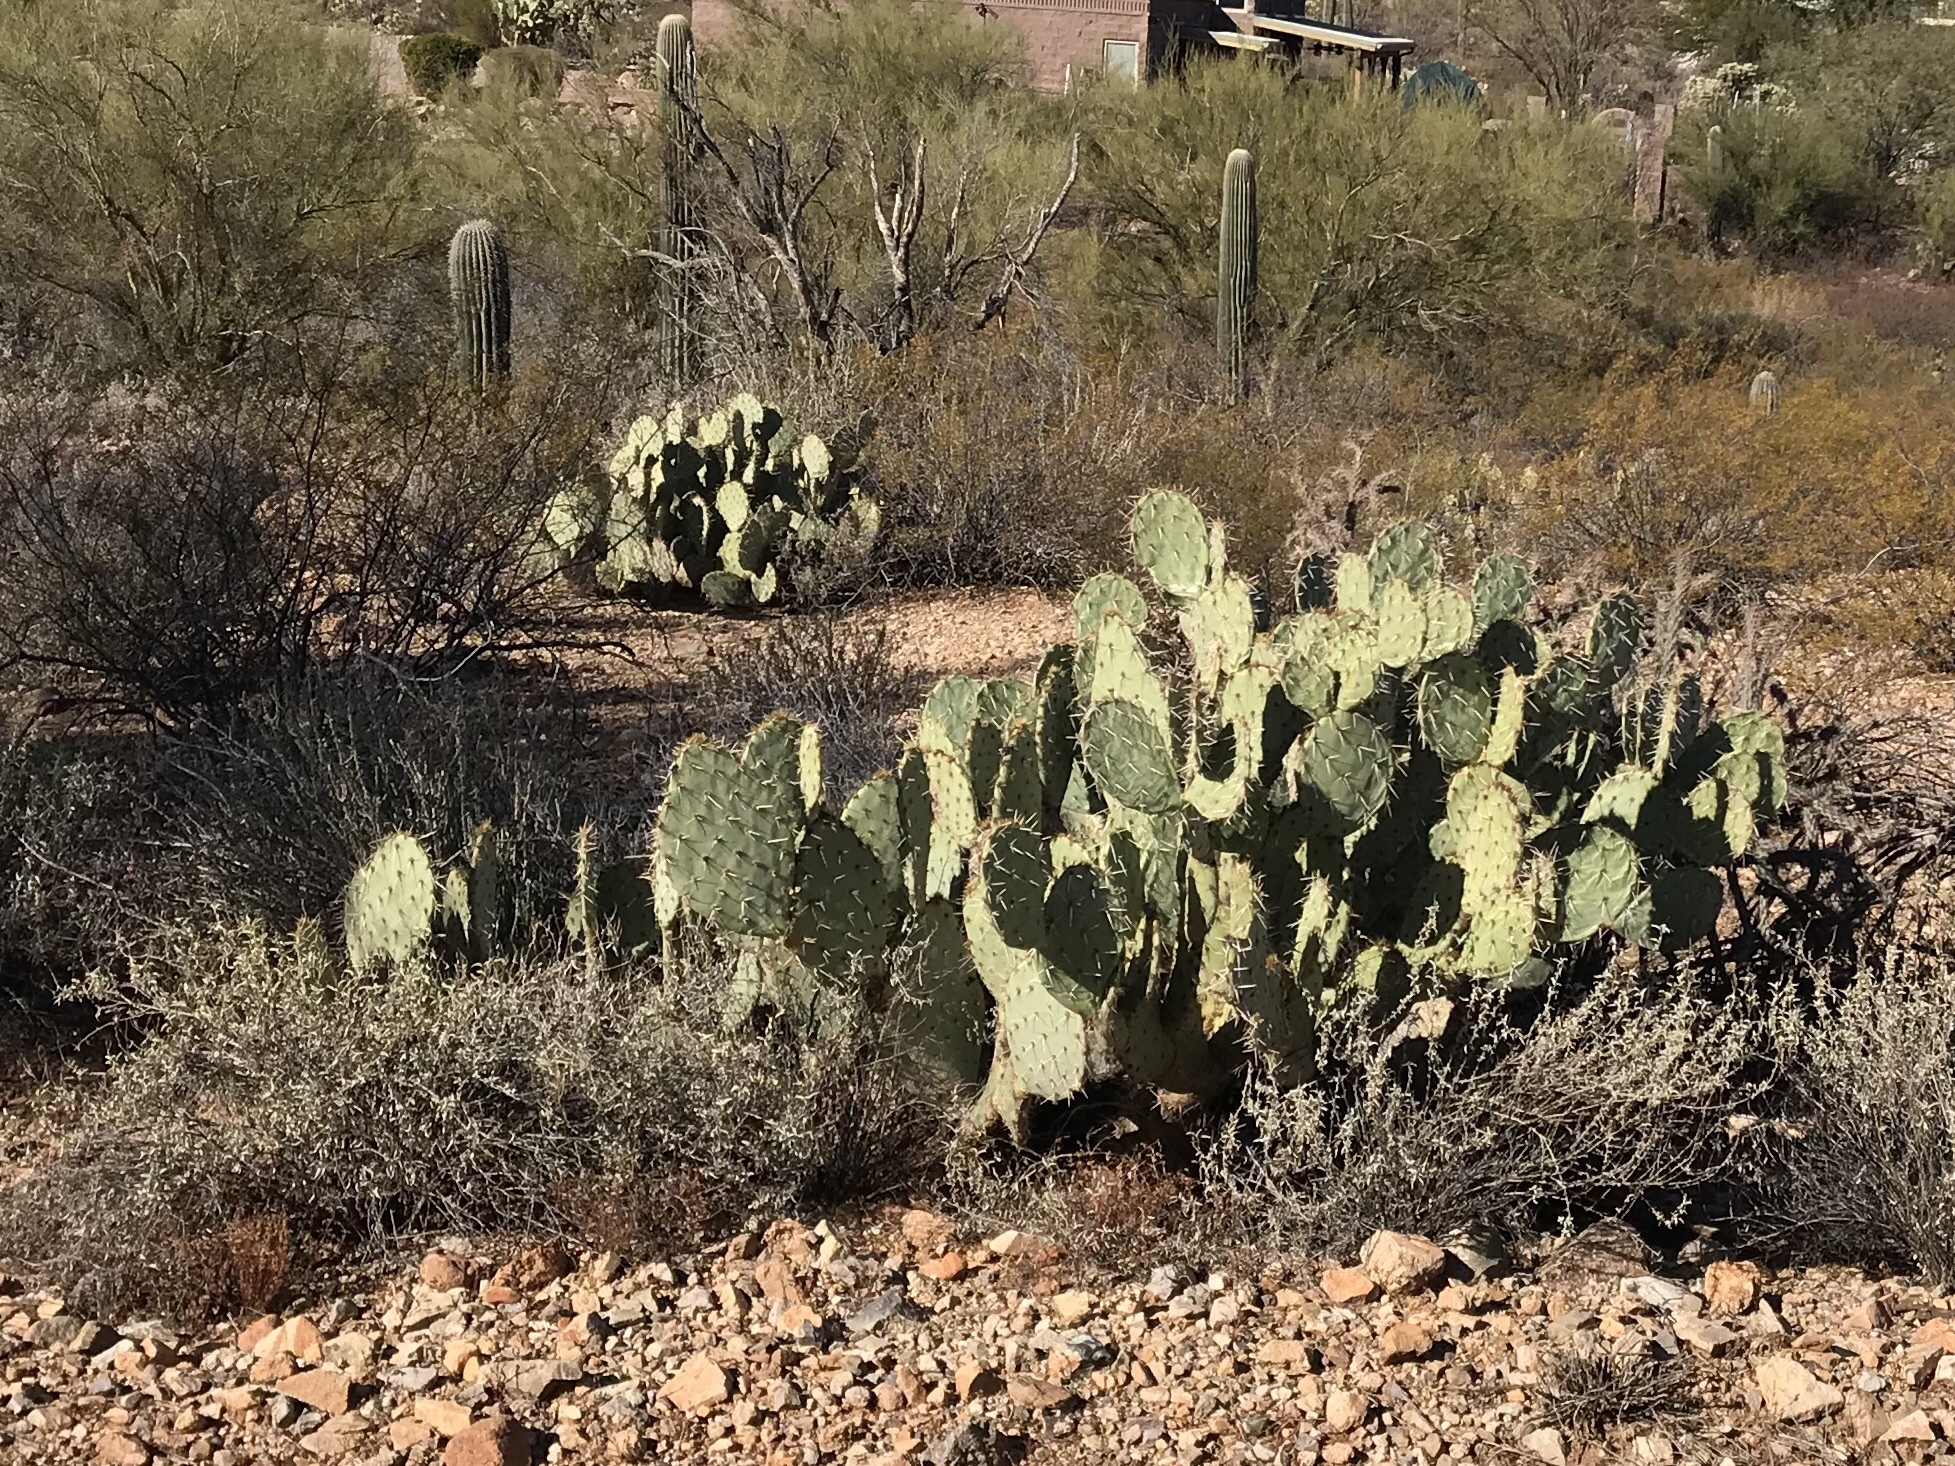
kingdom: Plantae
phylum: Tracheophyta
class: Magnoliopsida
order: Caryophyllales
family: Cactaceae
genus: Opuntia
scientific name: Opuntia engelmannii
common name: Cactus-apple
